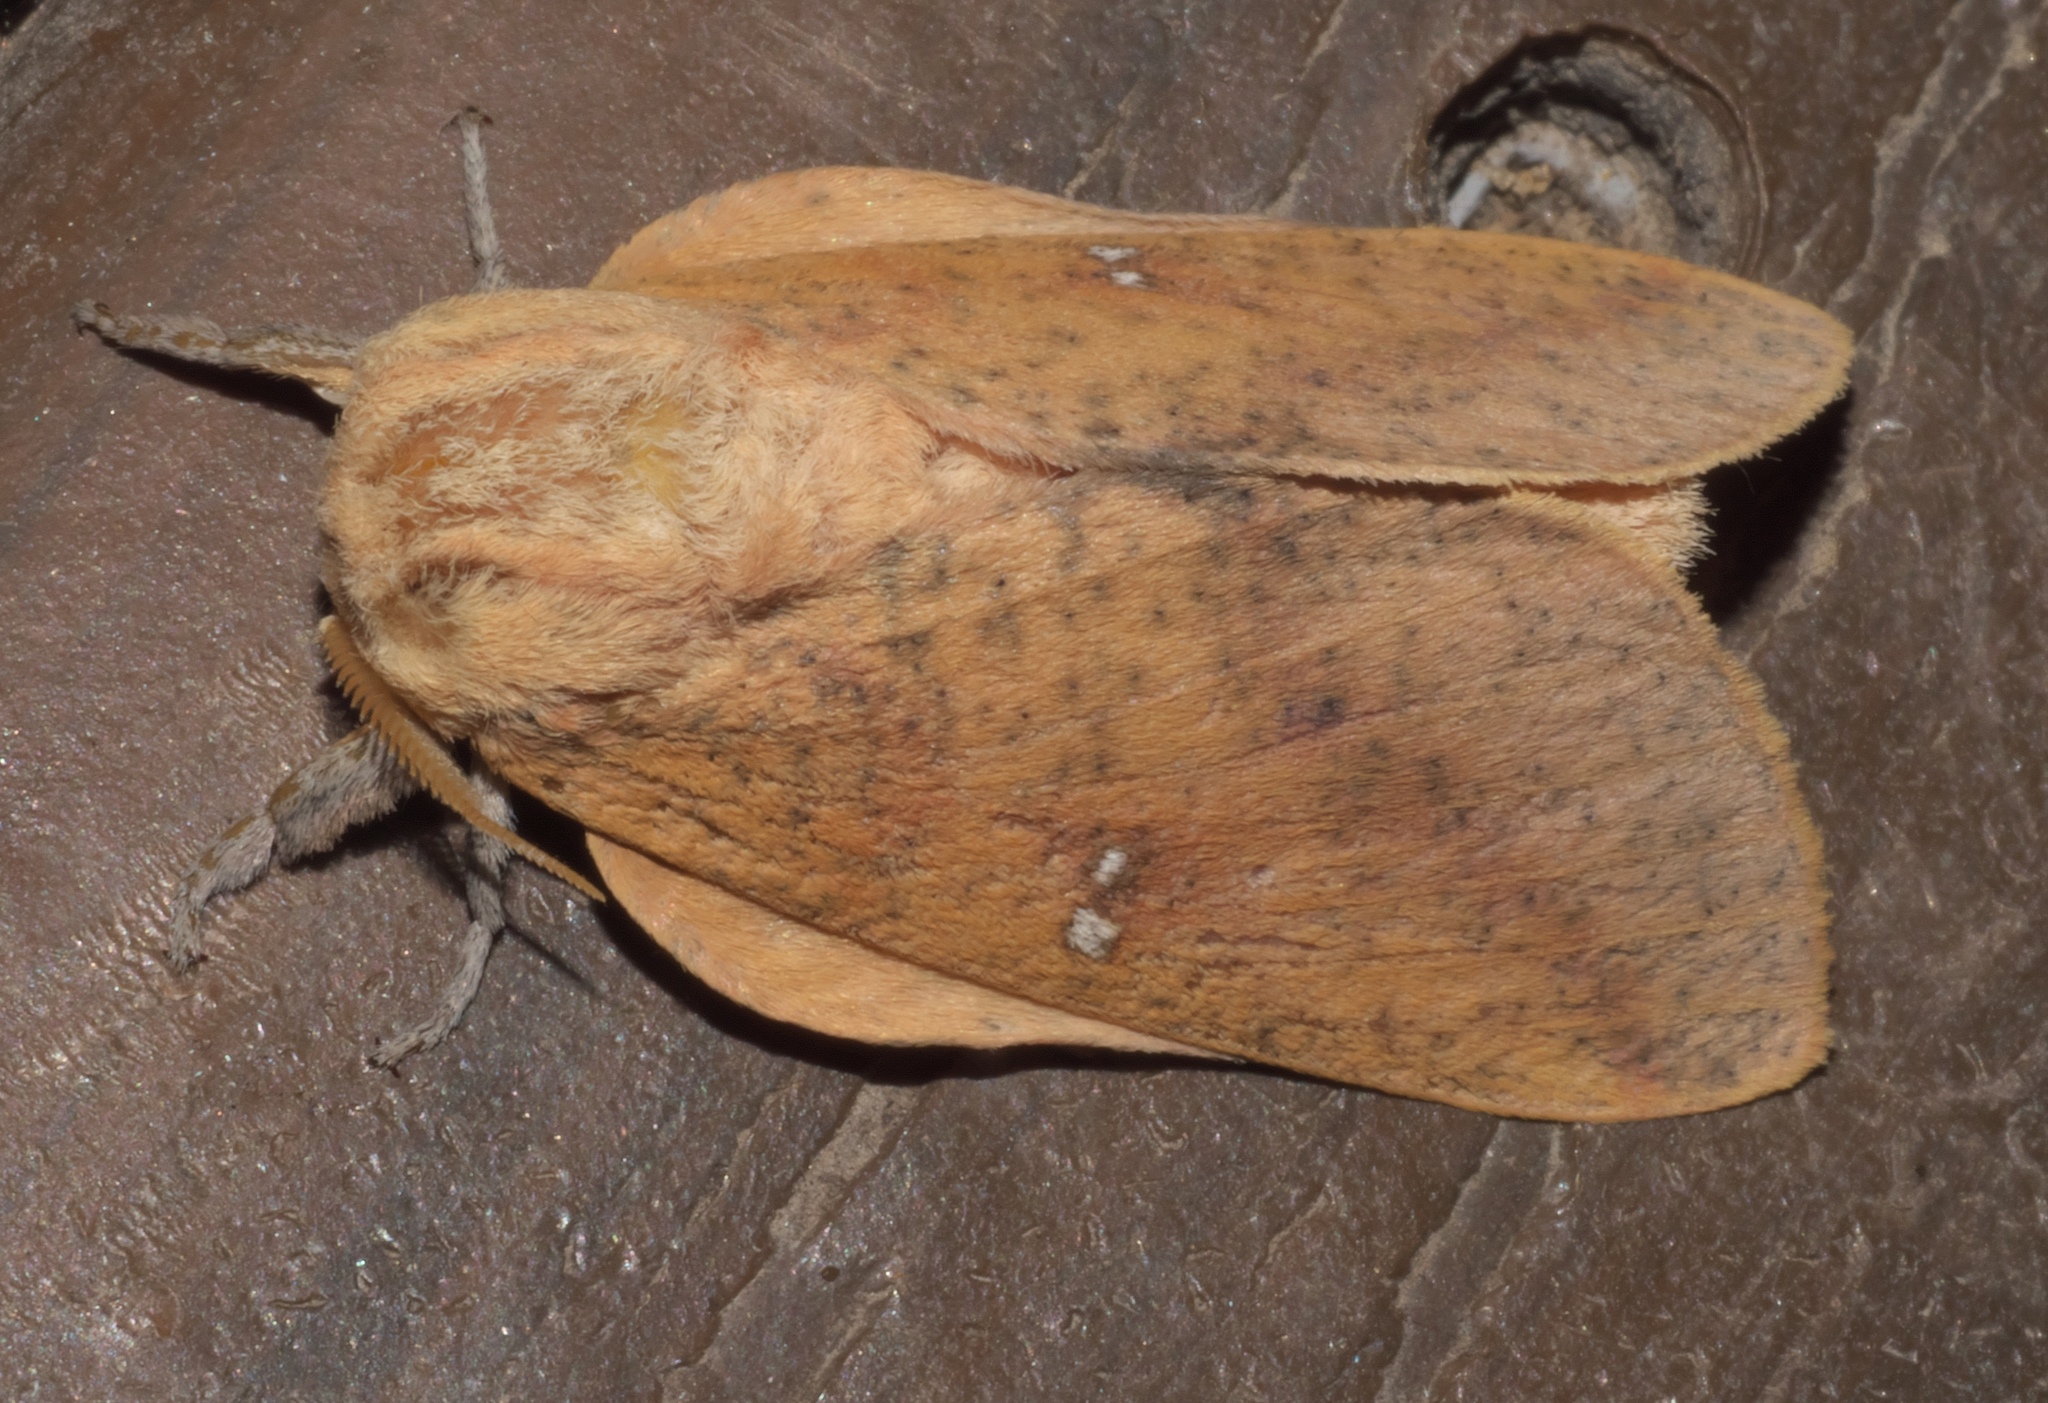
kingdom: Animalia
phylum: Arthropoda
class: Insecta
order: Lepidoptera
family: Saturniidae
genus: Syssphinx
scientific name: Syssphinx bicolor
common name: Honey locust moth
